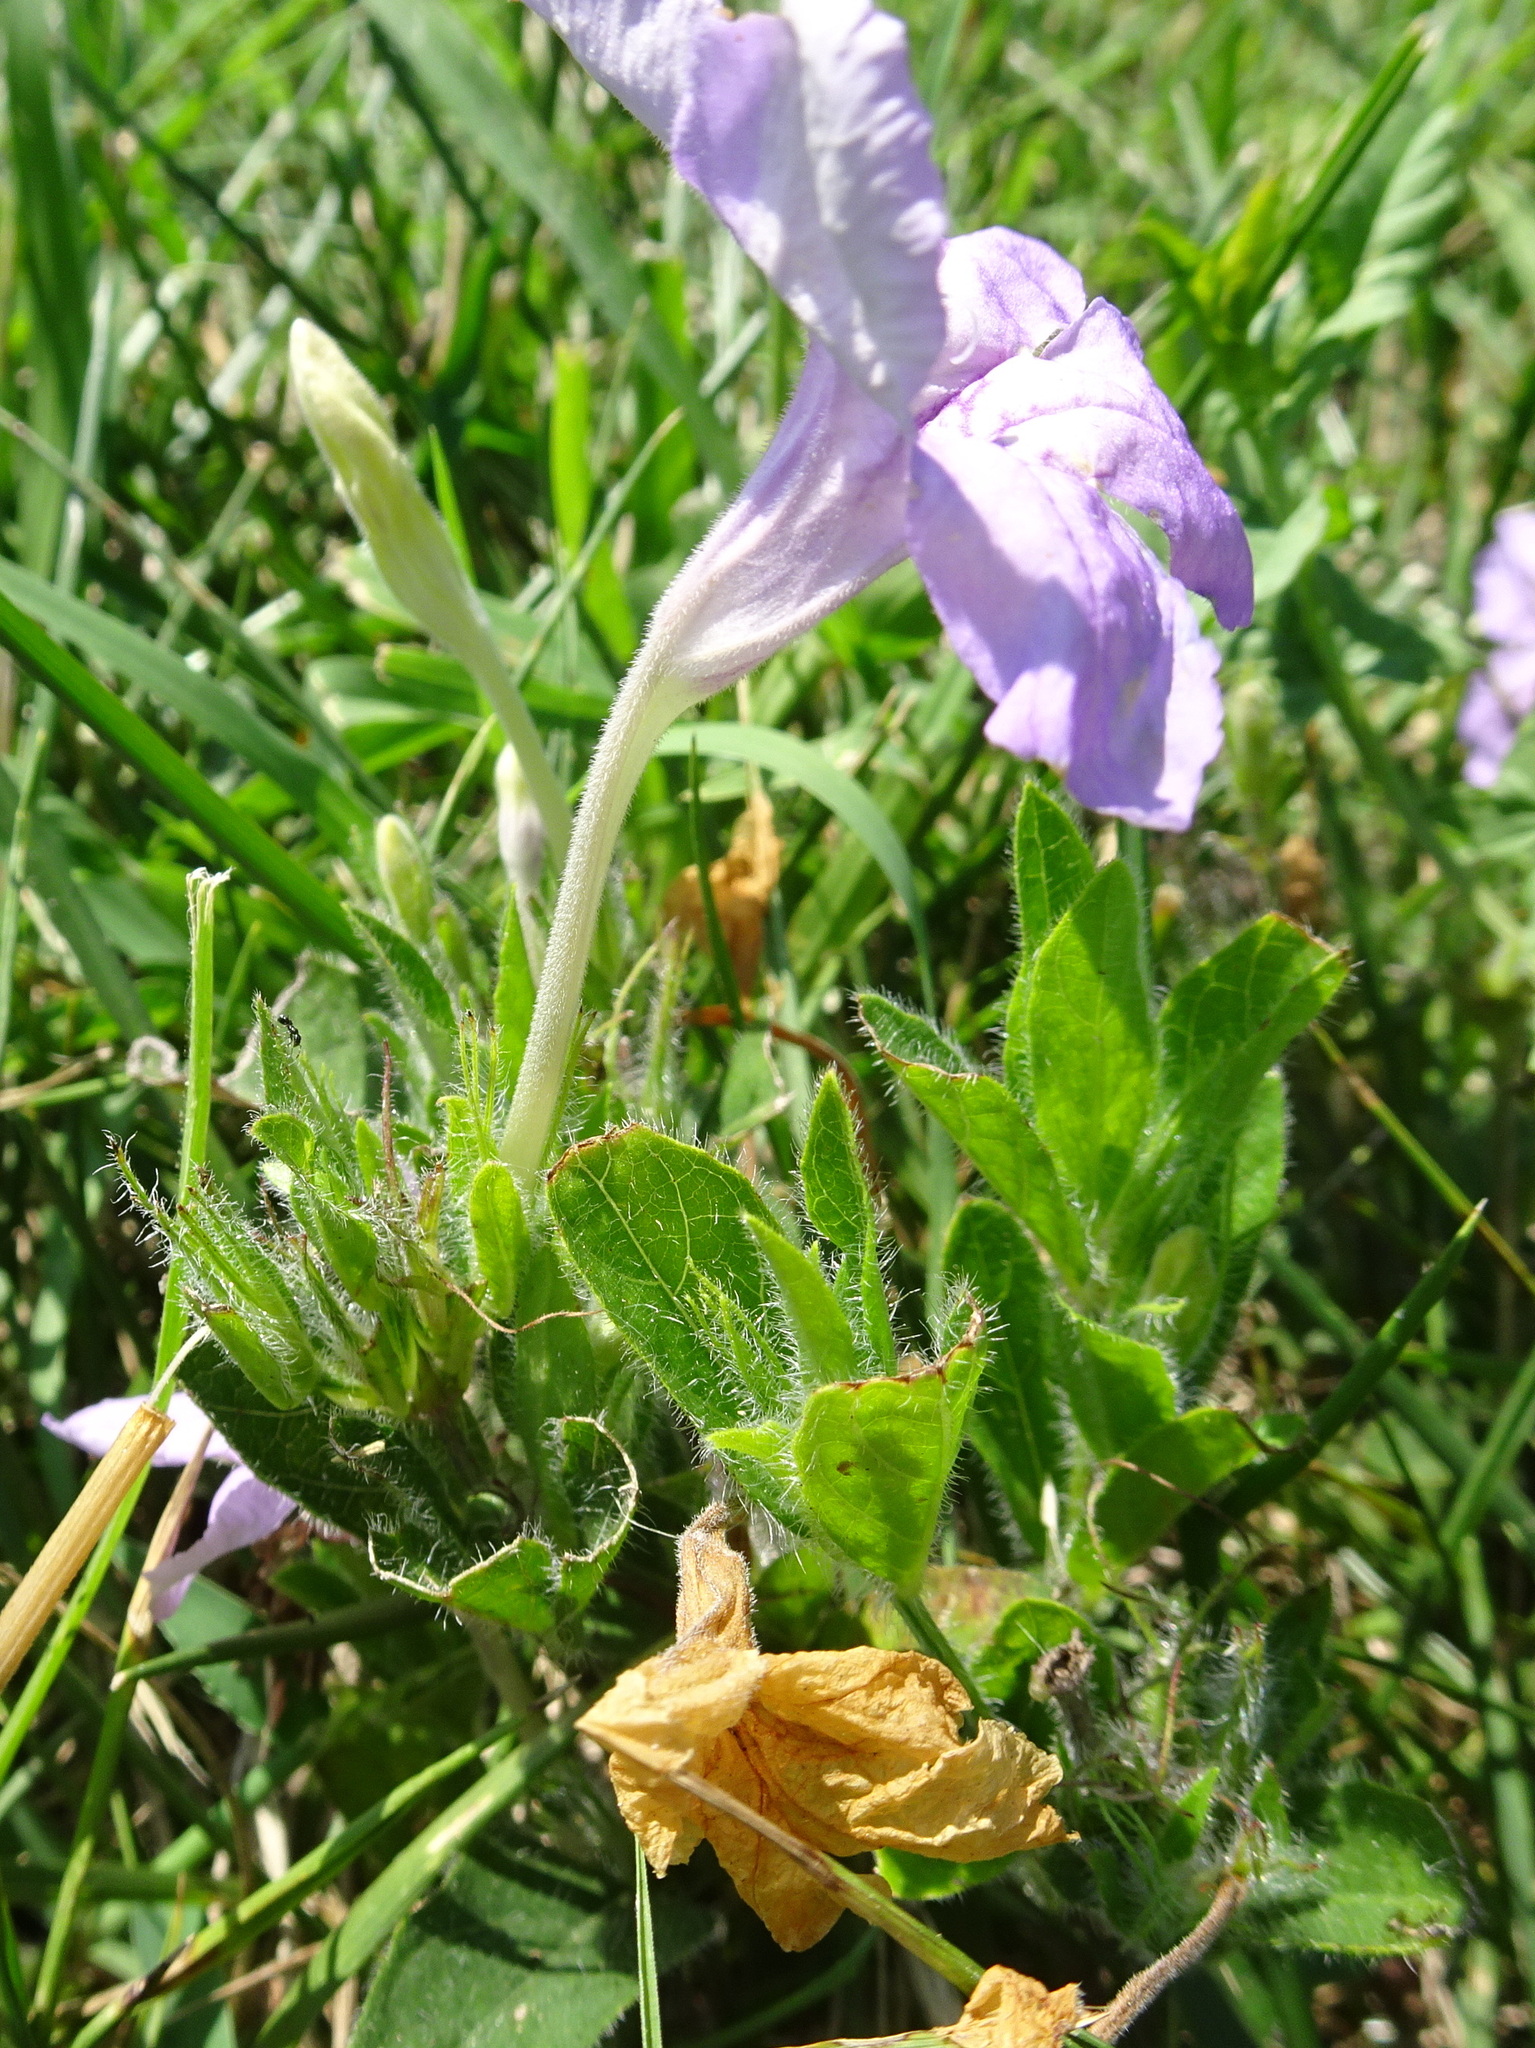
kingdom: Plantae
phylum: Tracheophyta
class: Magnoliopsida
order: Lamiales
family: Acanthaceae
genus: Ruellia
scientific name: Ruellia humilis
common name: Fringe-leaf ruellia
